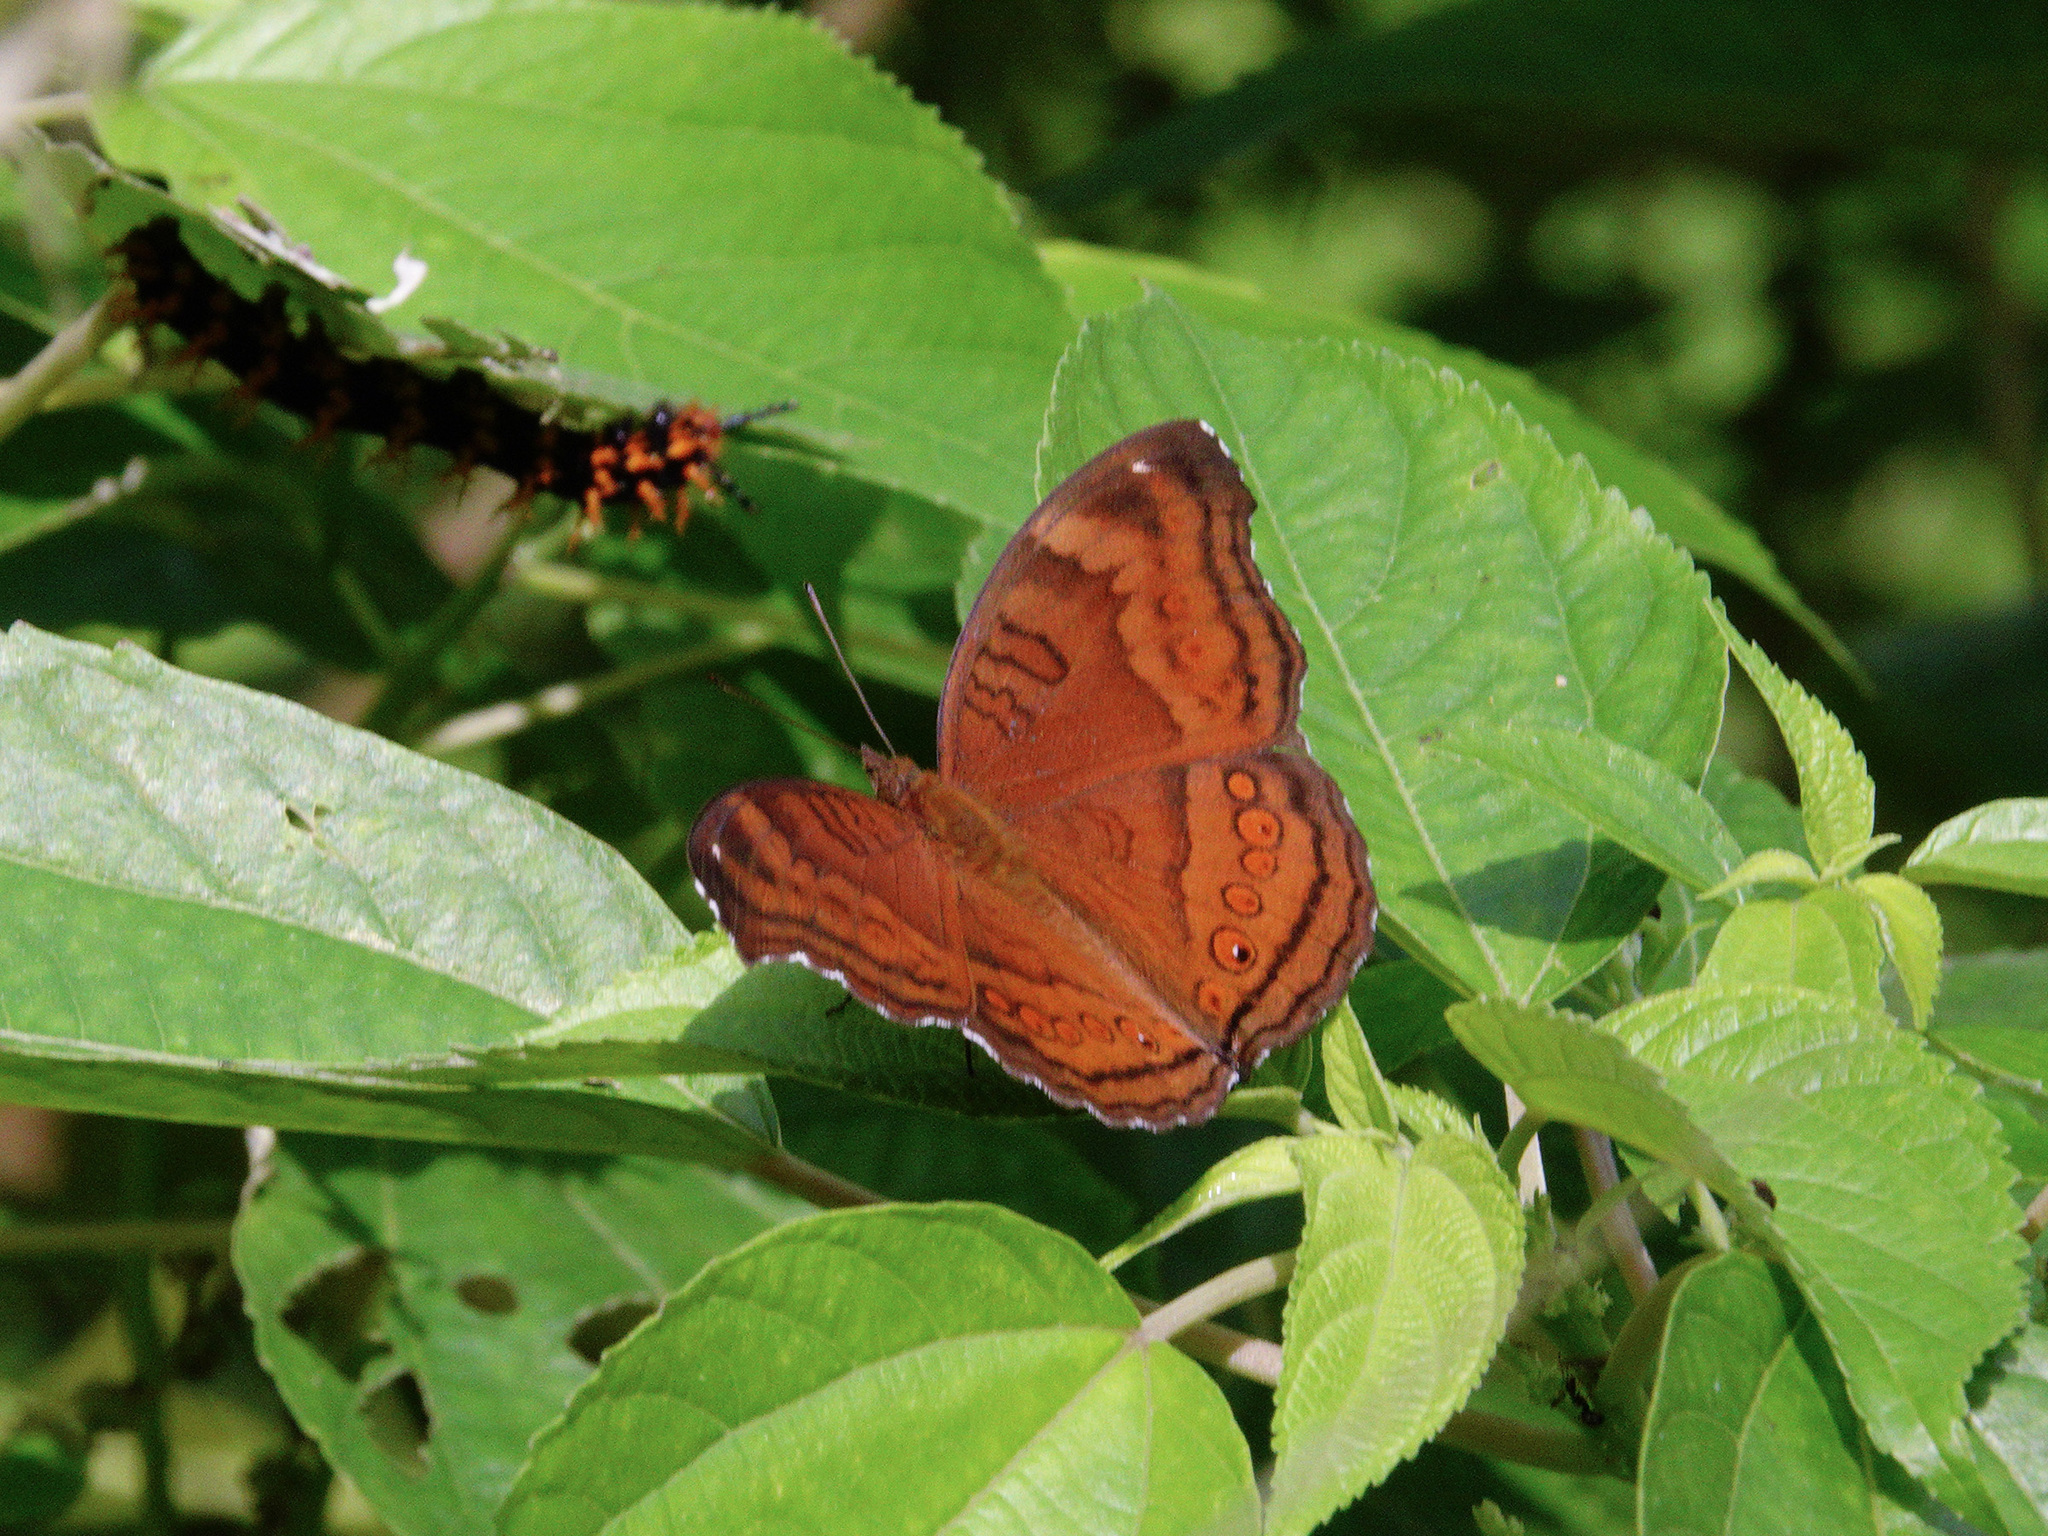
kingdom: Animalia
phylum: Arthropoda
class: Insecta
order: Lepidoptera
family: Nymphalidae
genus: Junonia
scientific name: Junonia hedonia
